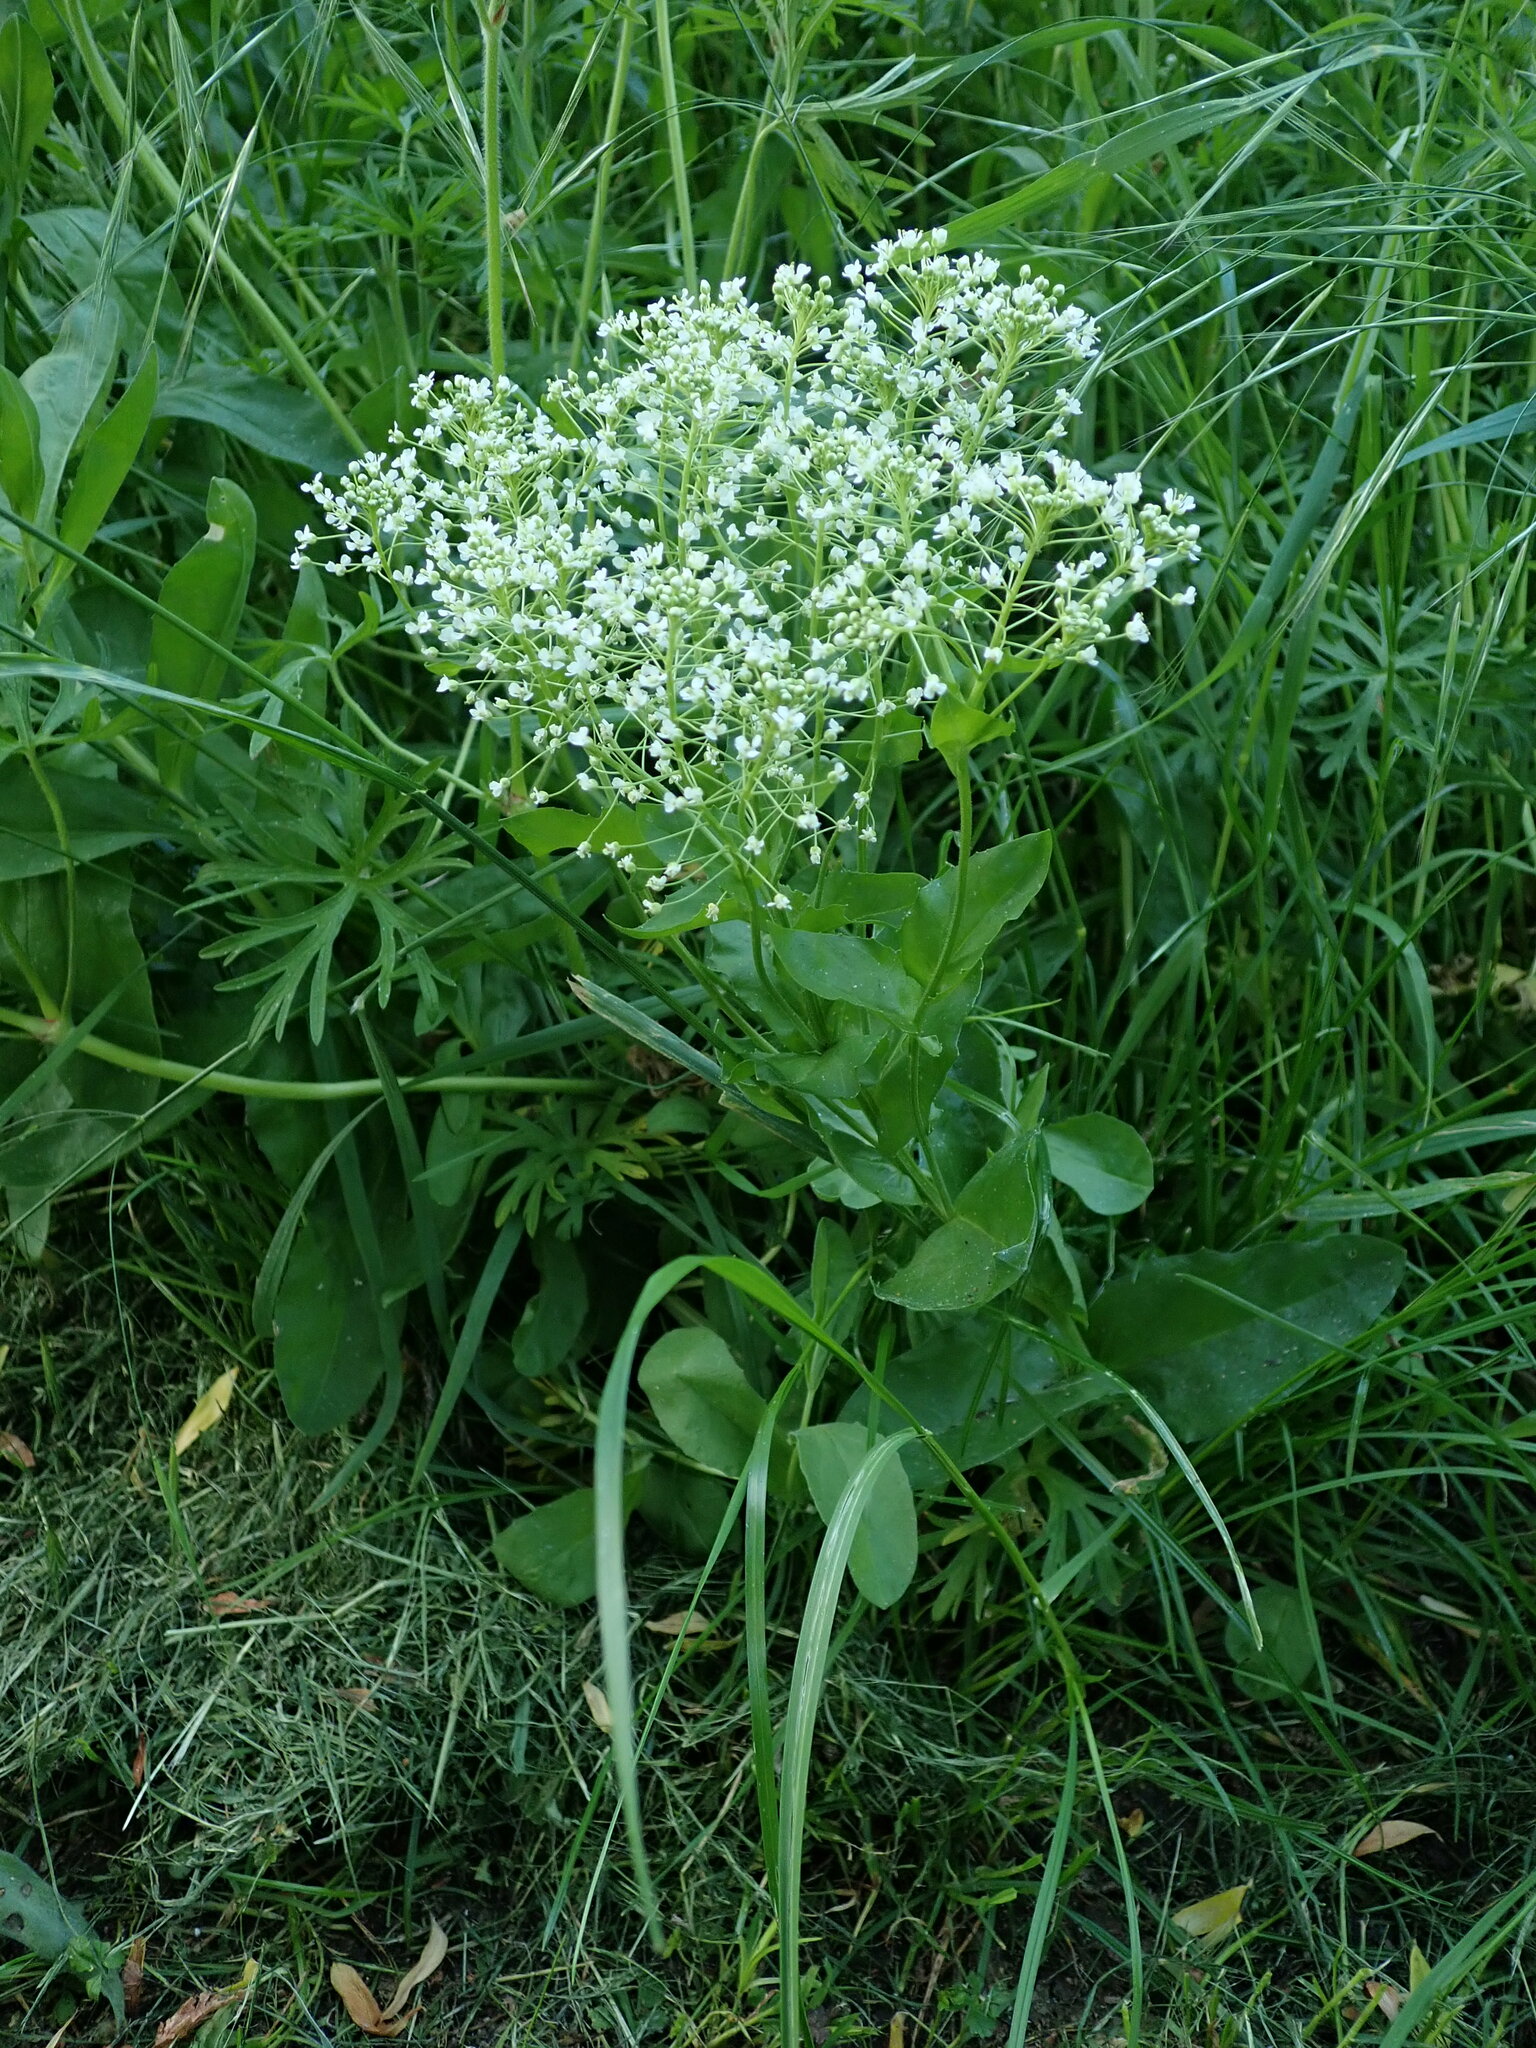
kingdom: Plantae
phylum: Tracheophyta
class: Magnoliopsida
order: Brassicales
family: Brassicaceae
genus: Lepidium
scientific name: Lepidium draba
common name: Hoary cress
